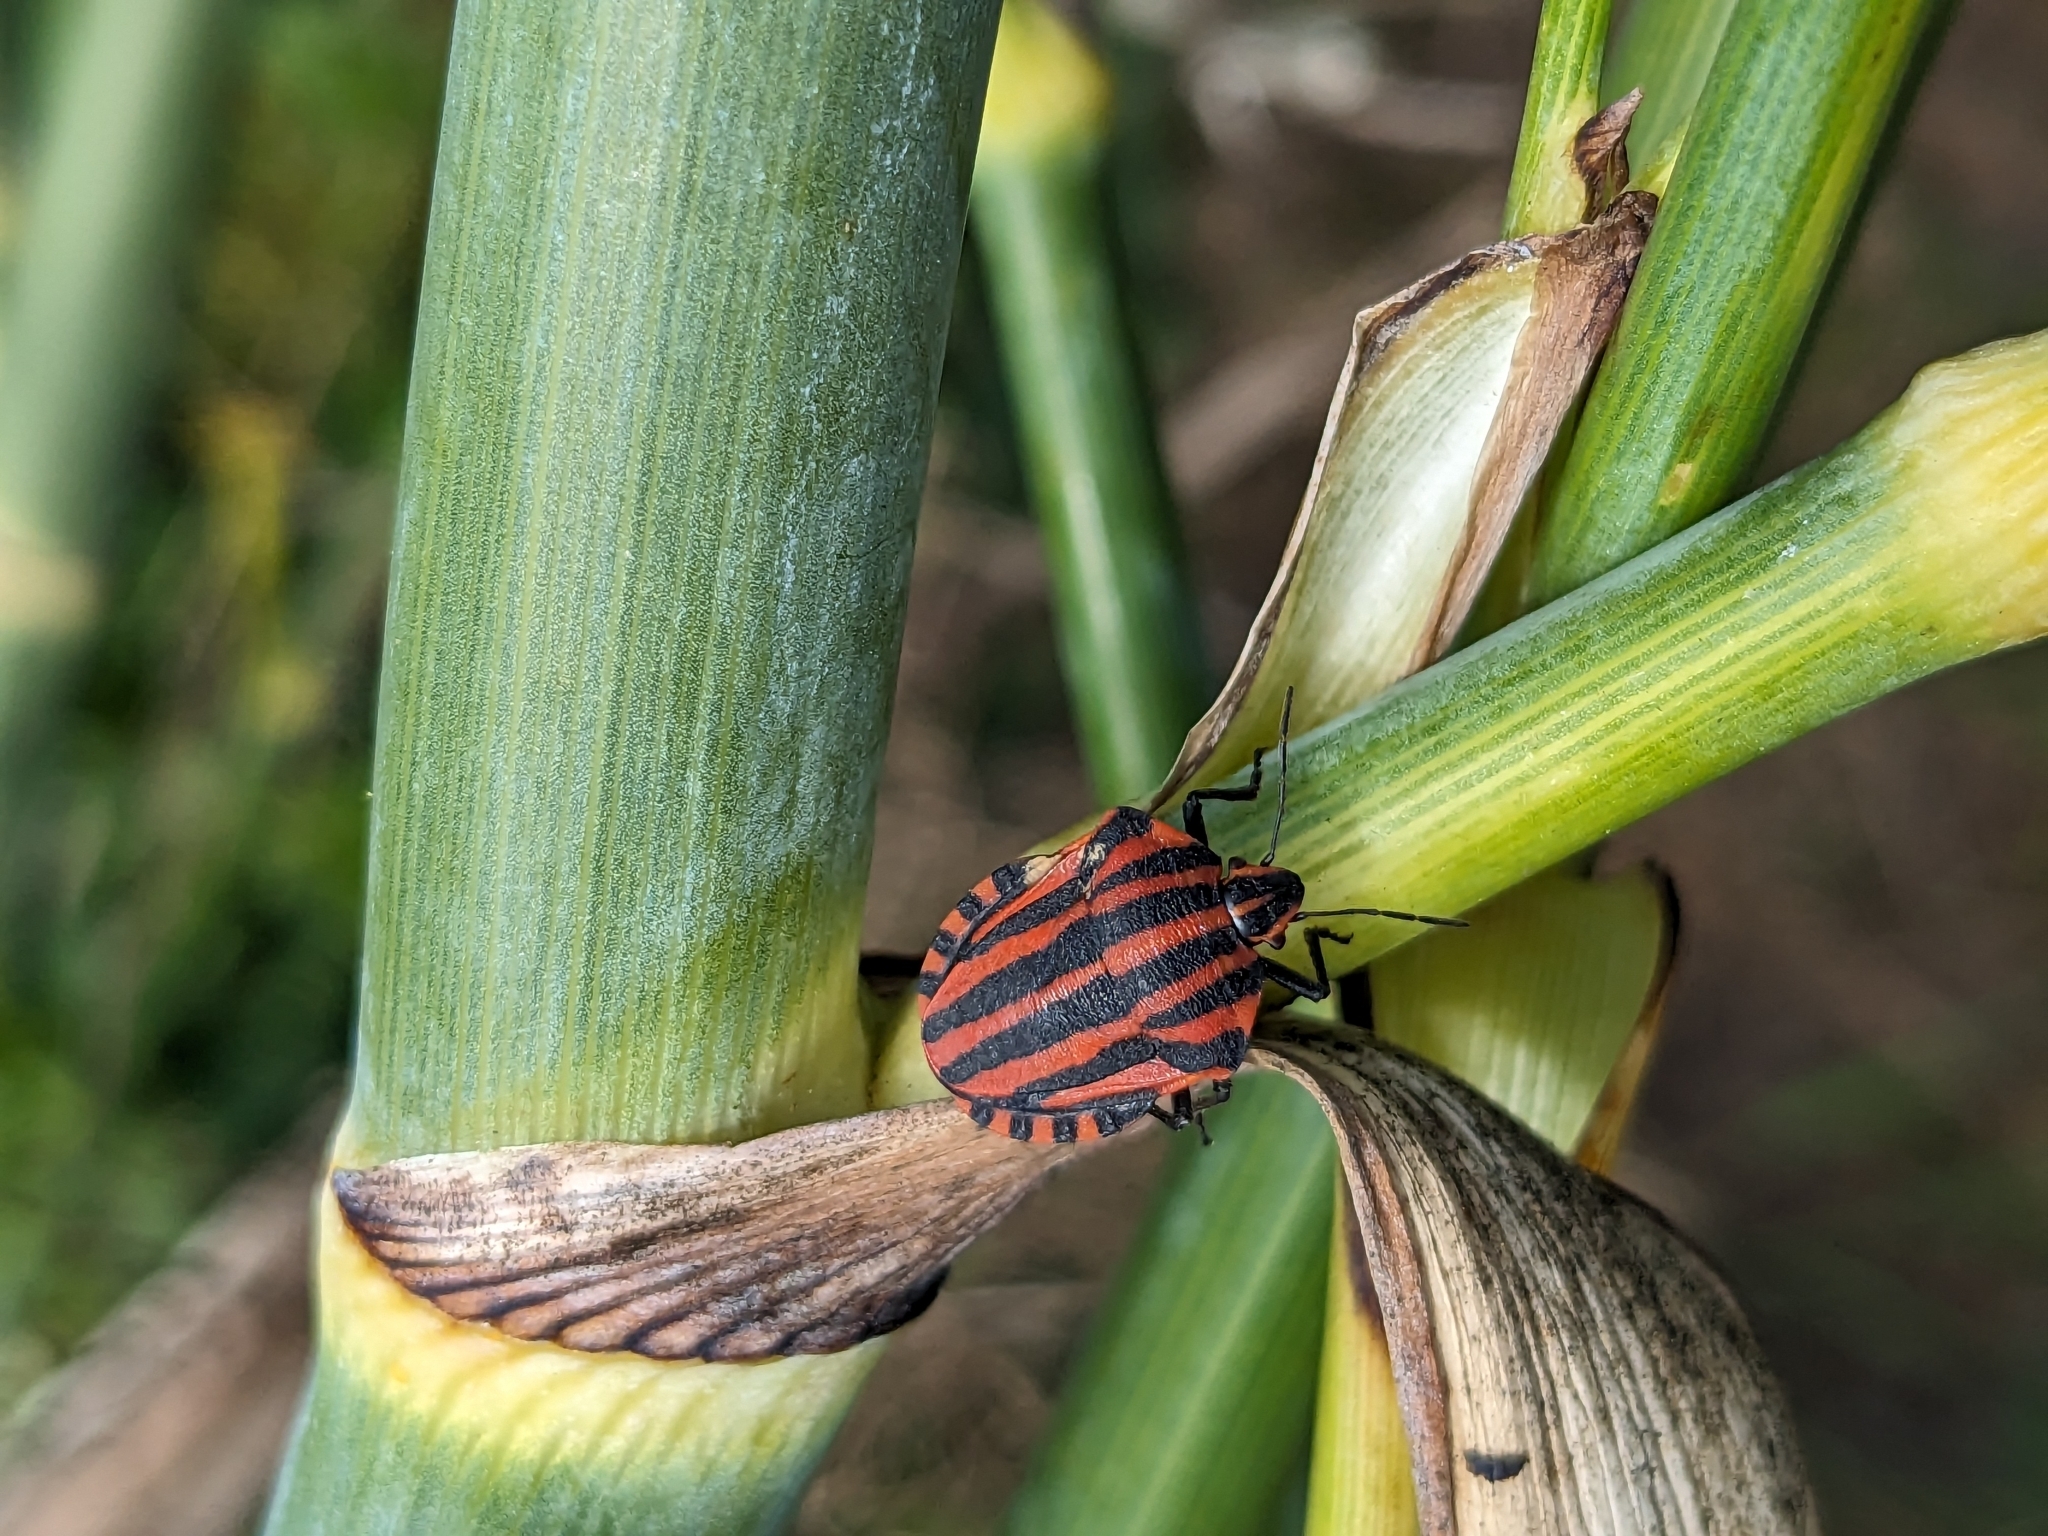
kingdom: Animalia
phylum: Arthropoda
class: Insecta
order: Hemiptera
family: Pentatomidae
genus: Graphosoma
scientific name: Graphosoma italicum
